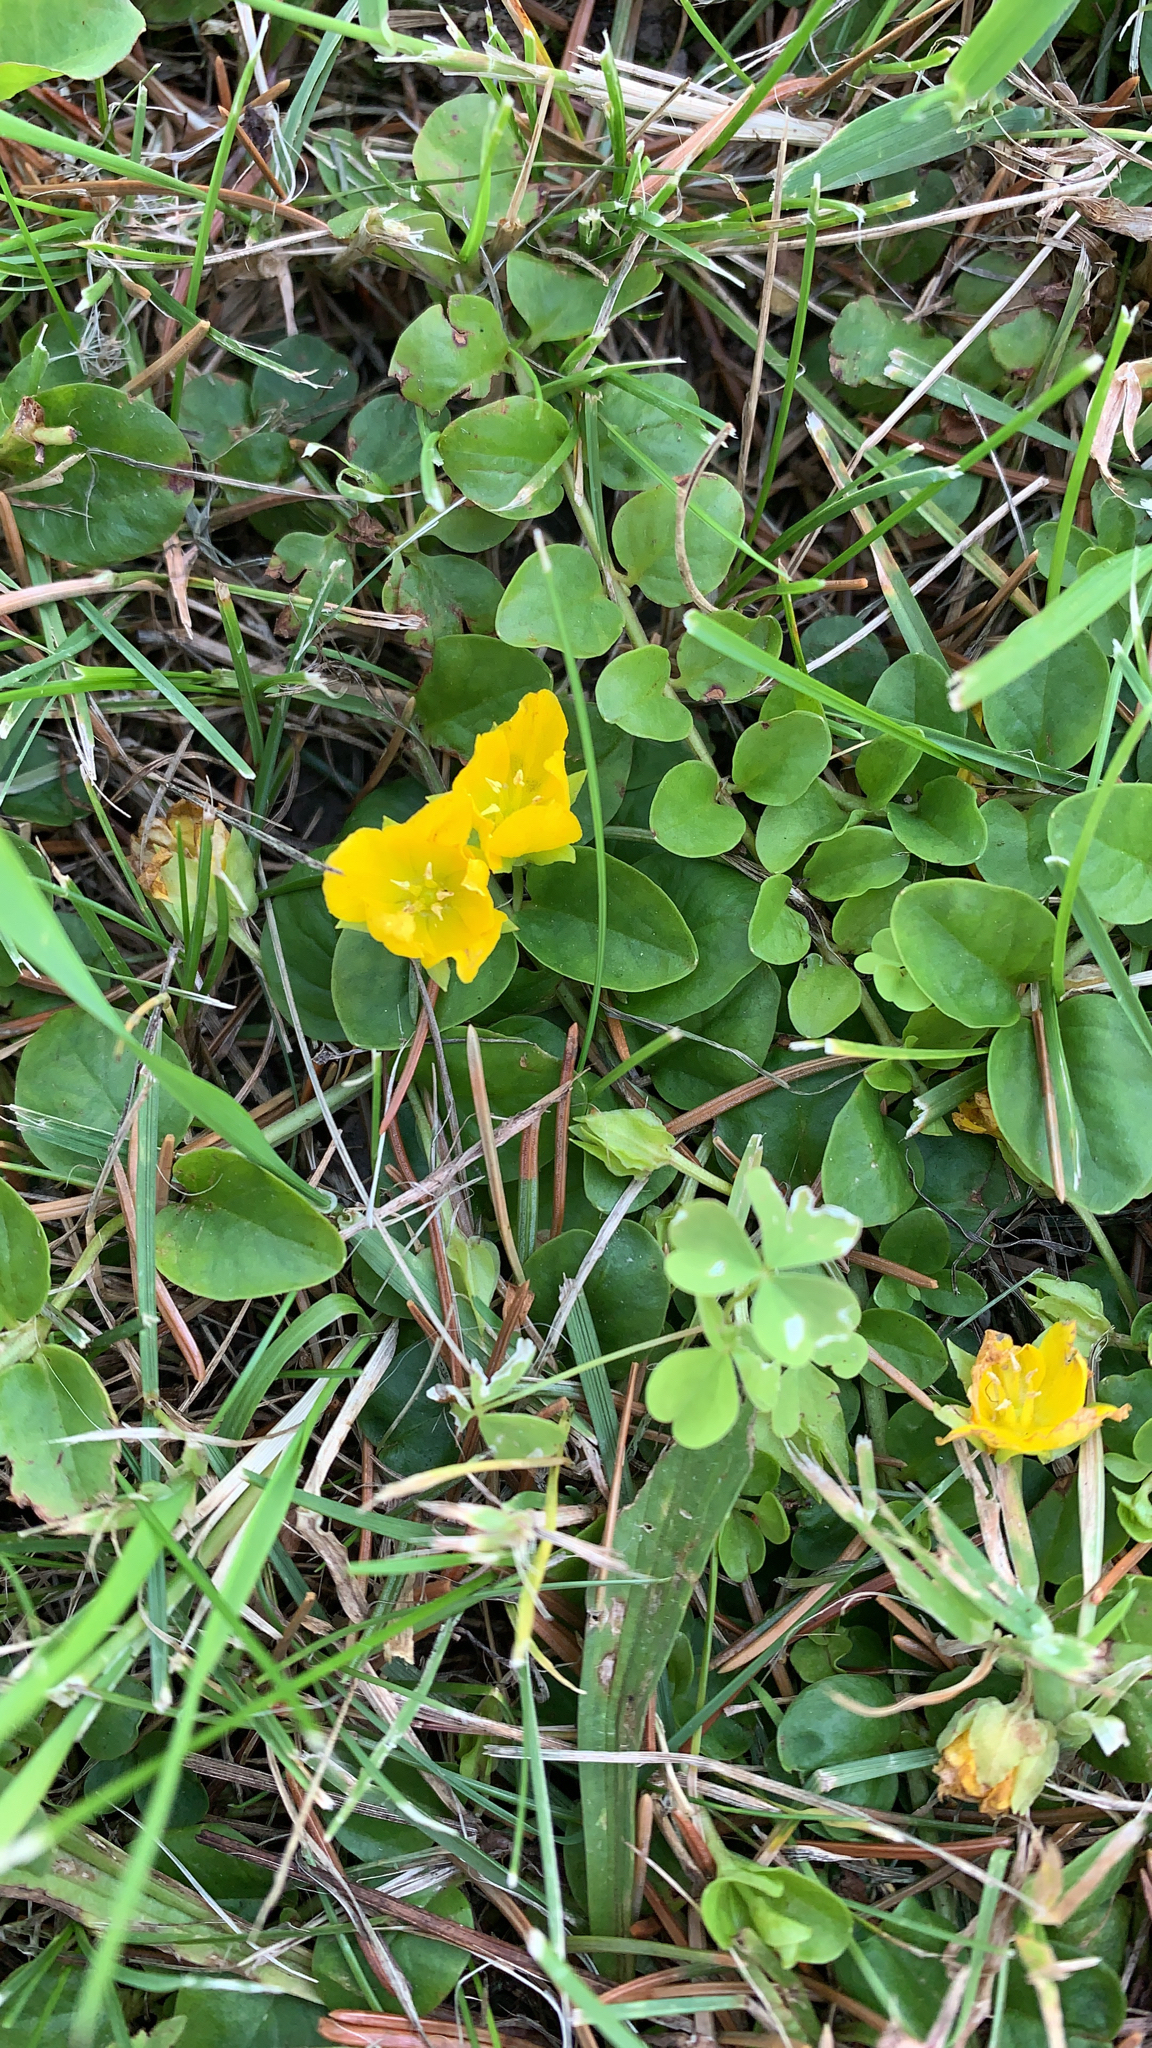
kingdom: Plantae
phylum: Tracheophyta
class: Magnoliopsida
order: Ericales
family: Primulaceae
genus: Lysimachia
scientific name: Lysimachia nummularia
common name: Moneywort
